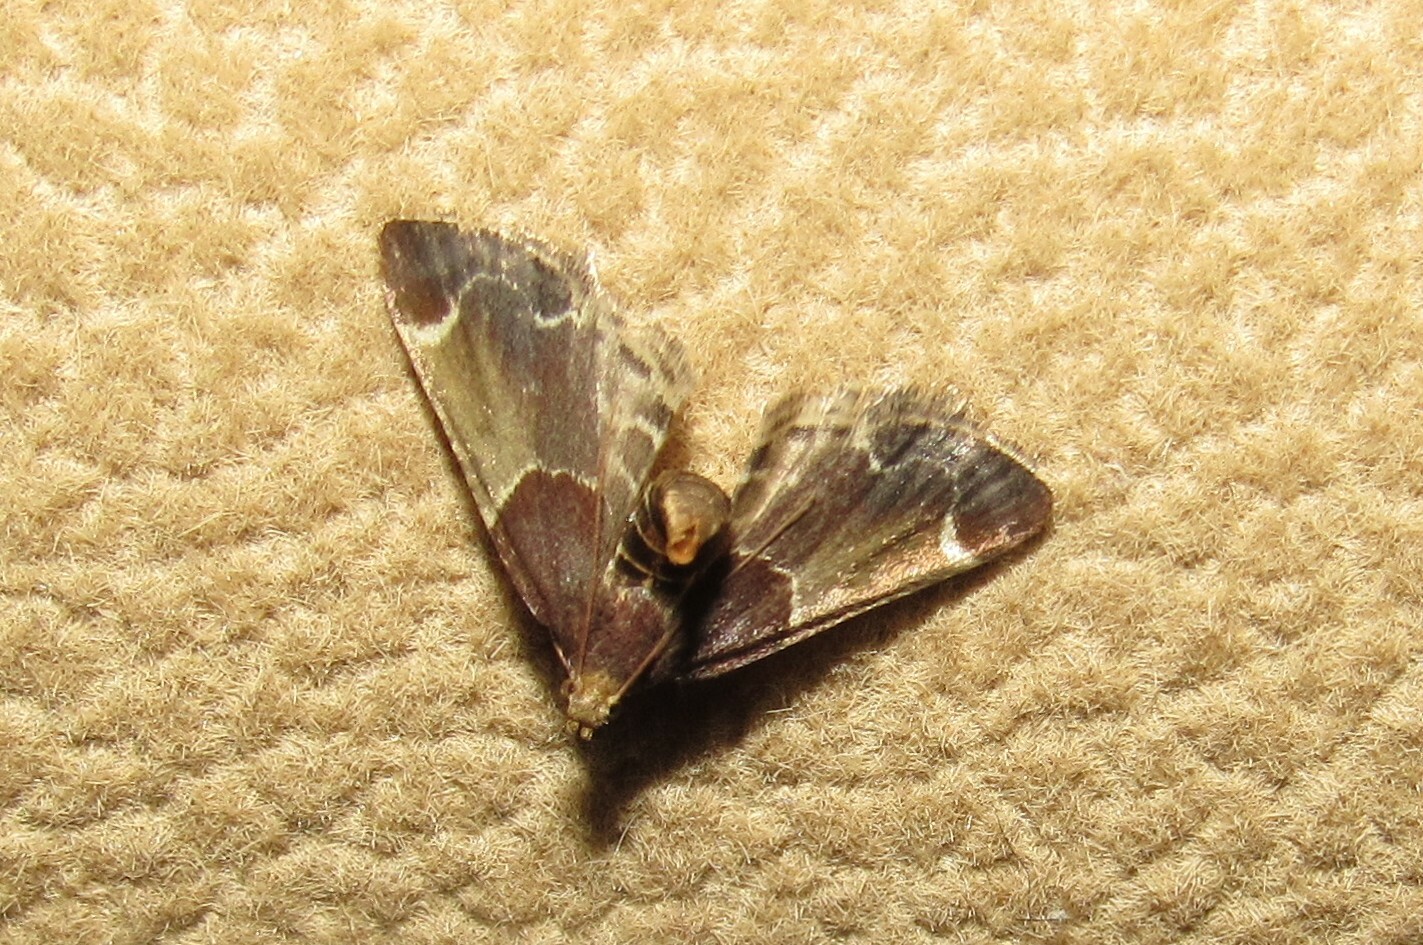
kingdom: Animalia
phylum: Arthropoda
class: Insecta
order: Lepidoptera
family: Pyralidae
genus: Pyralis
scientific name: Pyralis farinalis
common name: Meal moth
